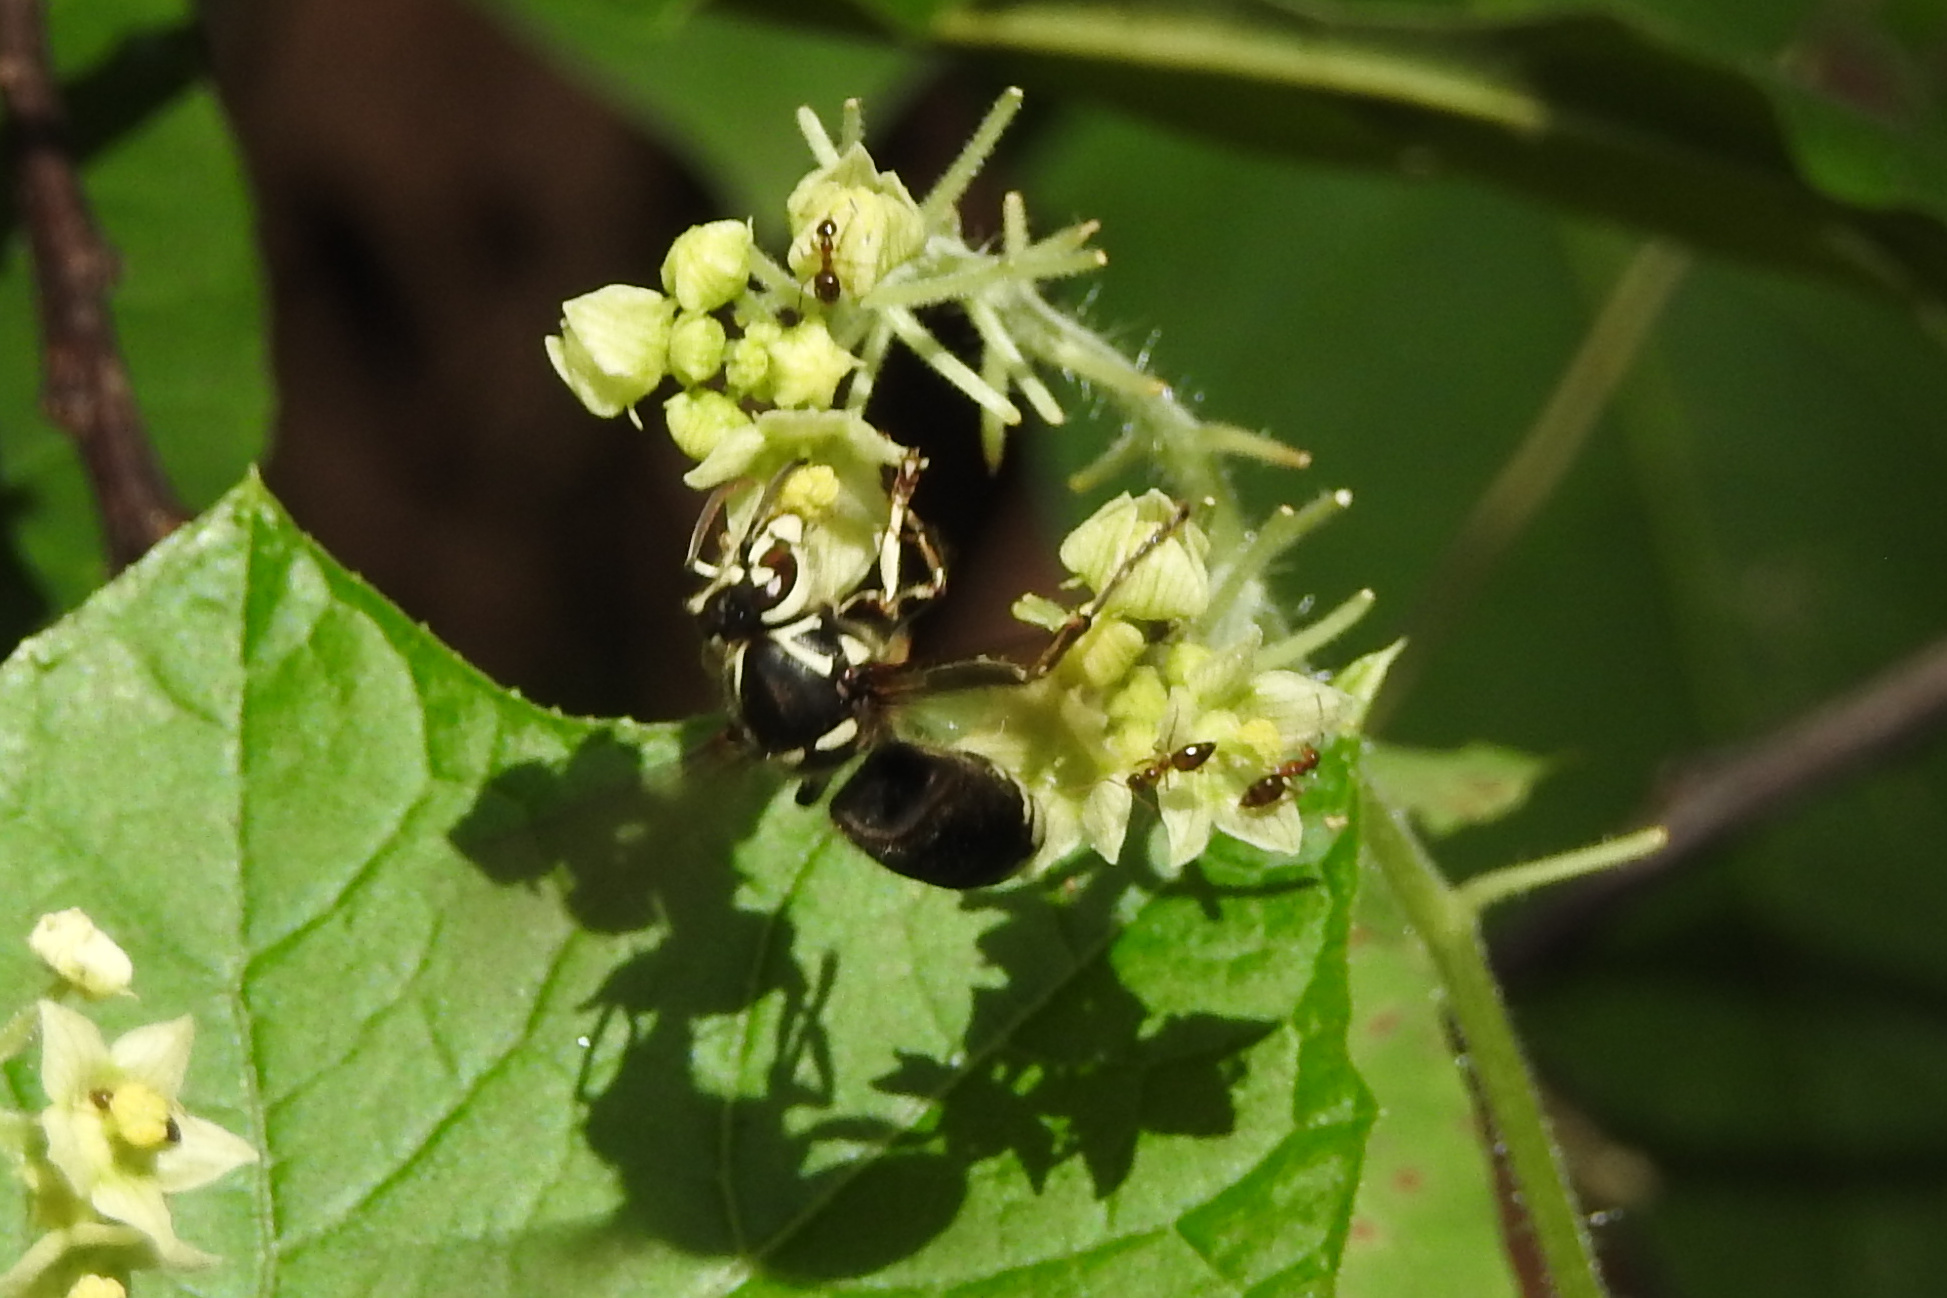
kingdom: Animalia
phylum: Arthropoda
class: Insecta
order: Hymenoptera
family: Vespidae
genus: Dolichovespula
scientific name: Dolichovespula maculata
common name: Bald-faced hornet
